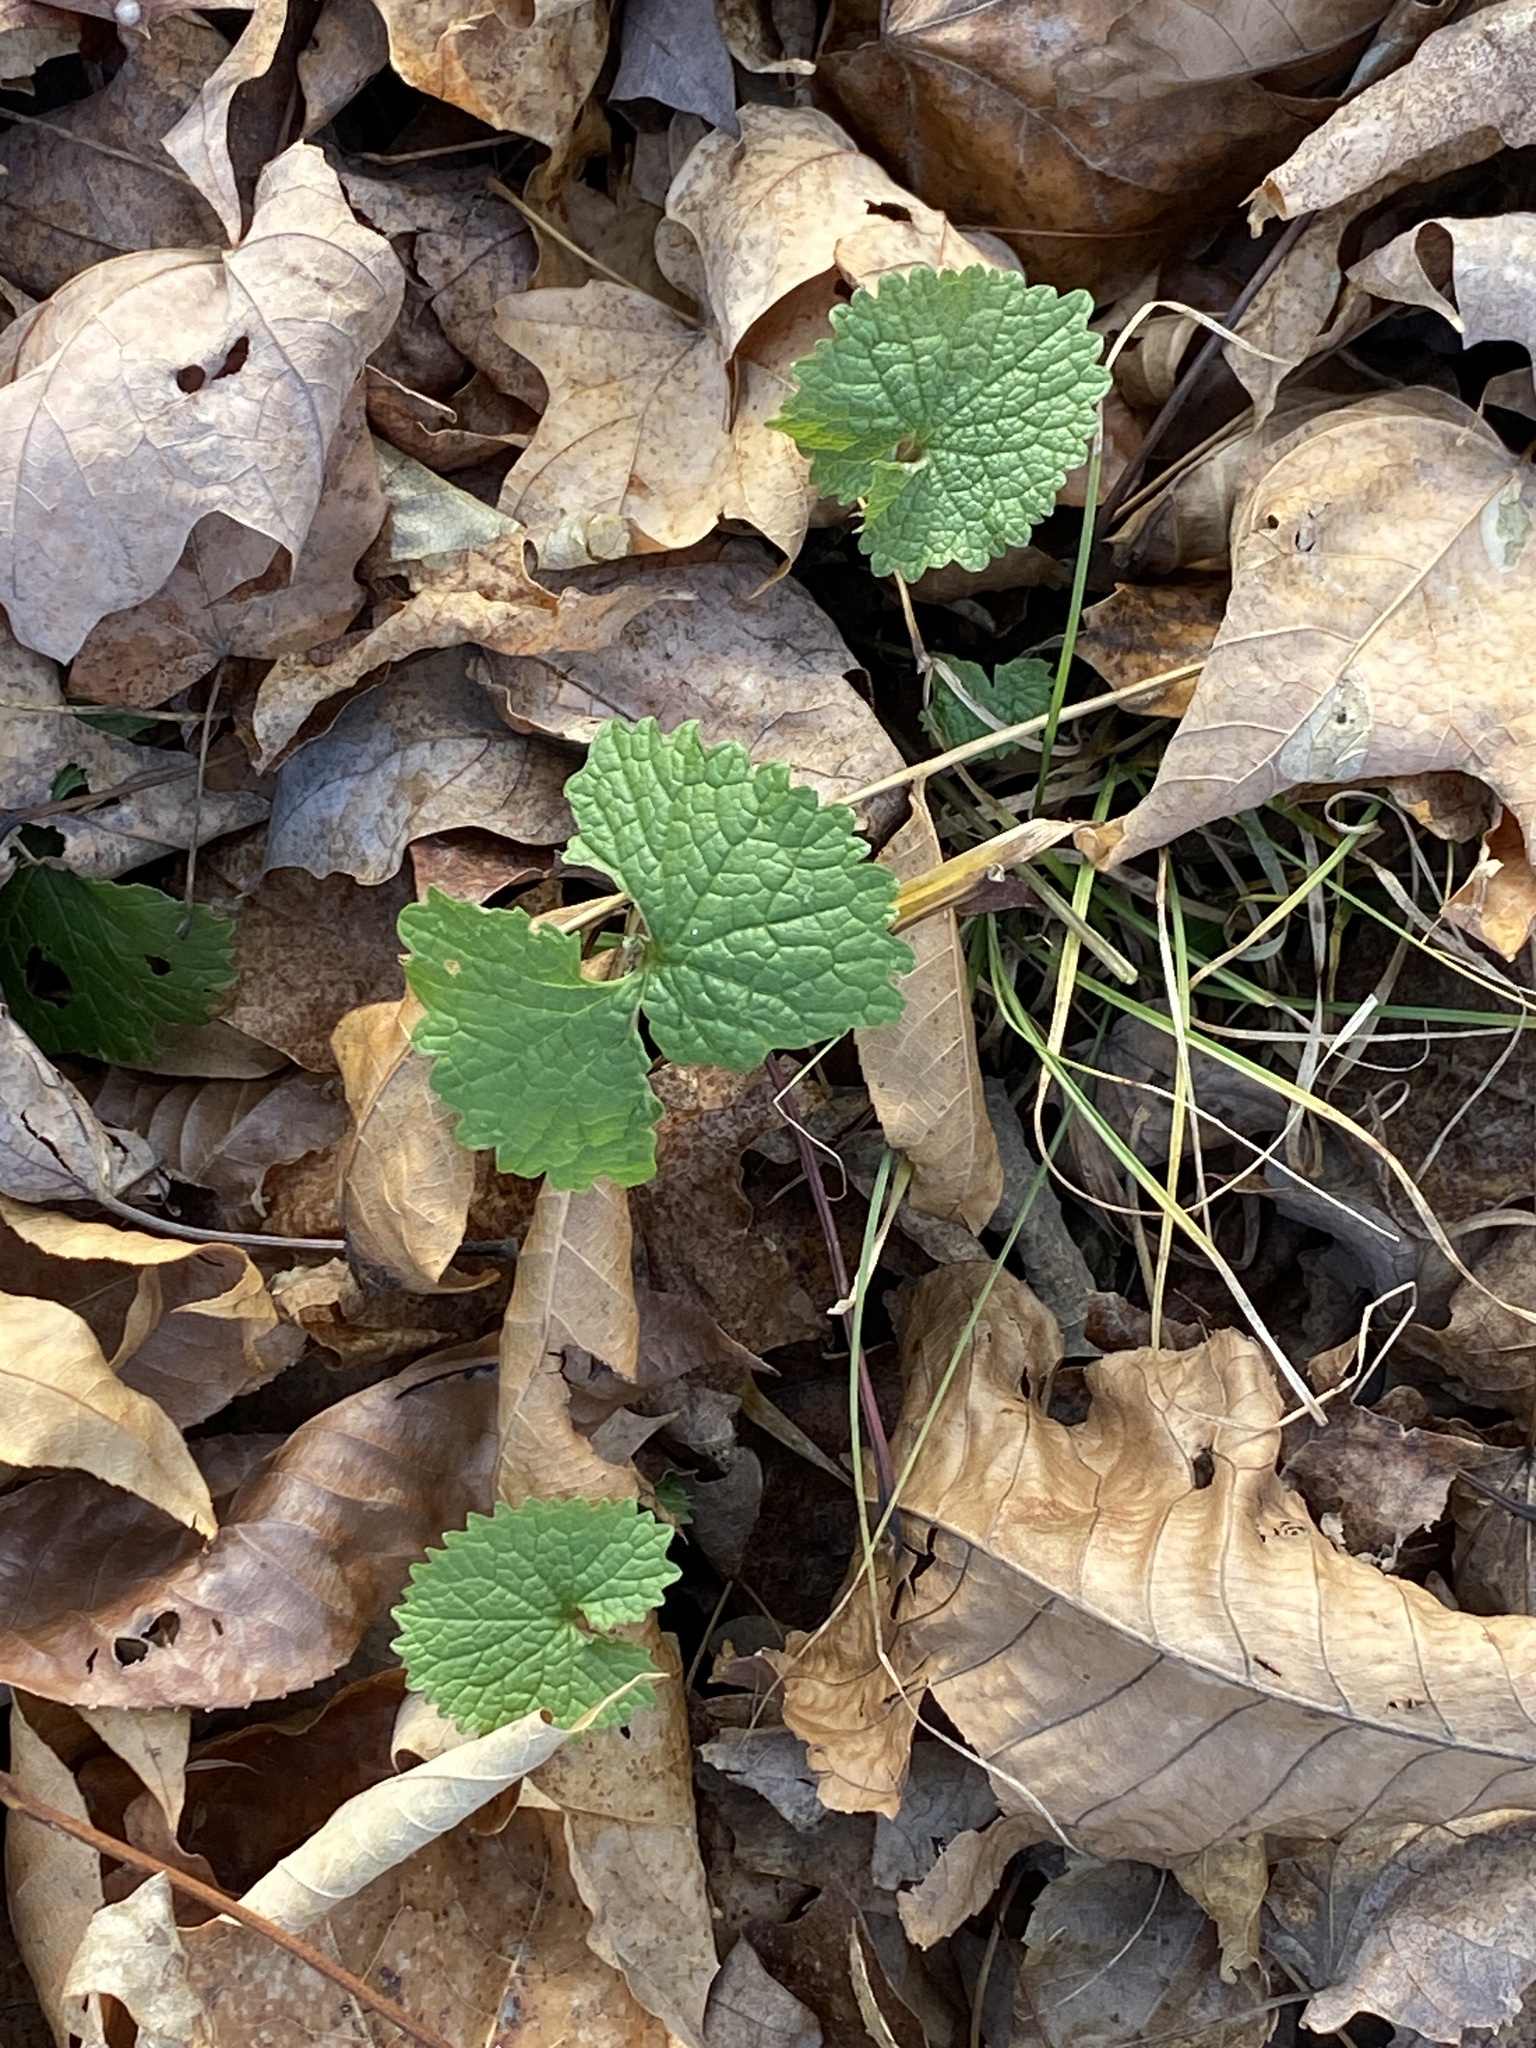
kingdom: Plantae
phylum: Tracheophyta
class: Magnoliopsida
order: Brassicales
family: Brassicaceae
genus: Alliaria
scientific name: Alliaria petiolata
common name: Garlic mustard
